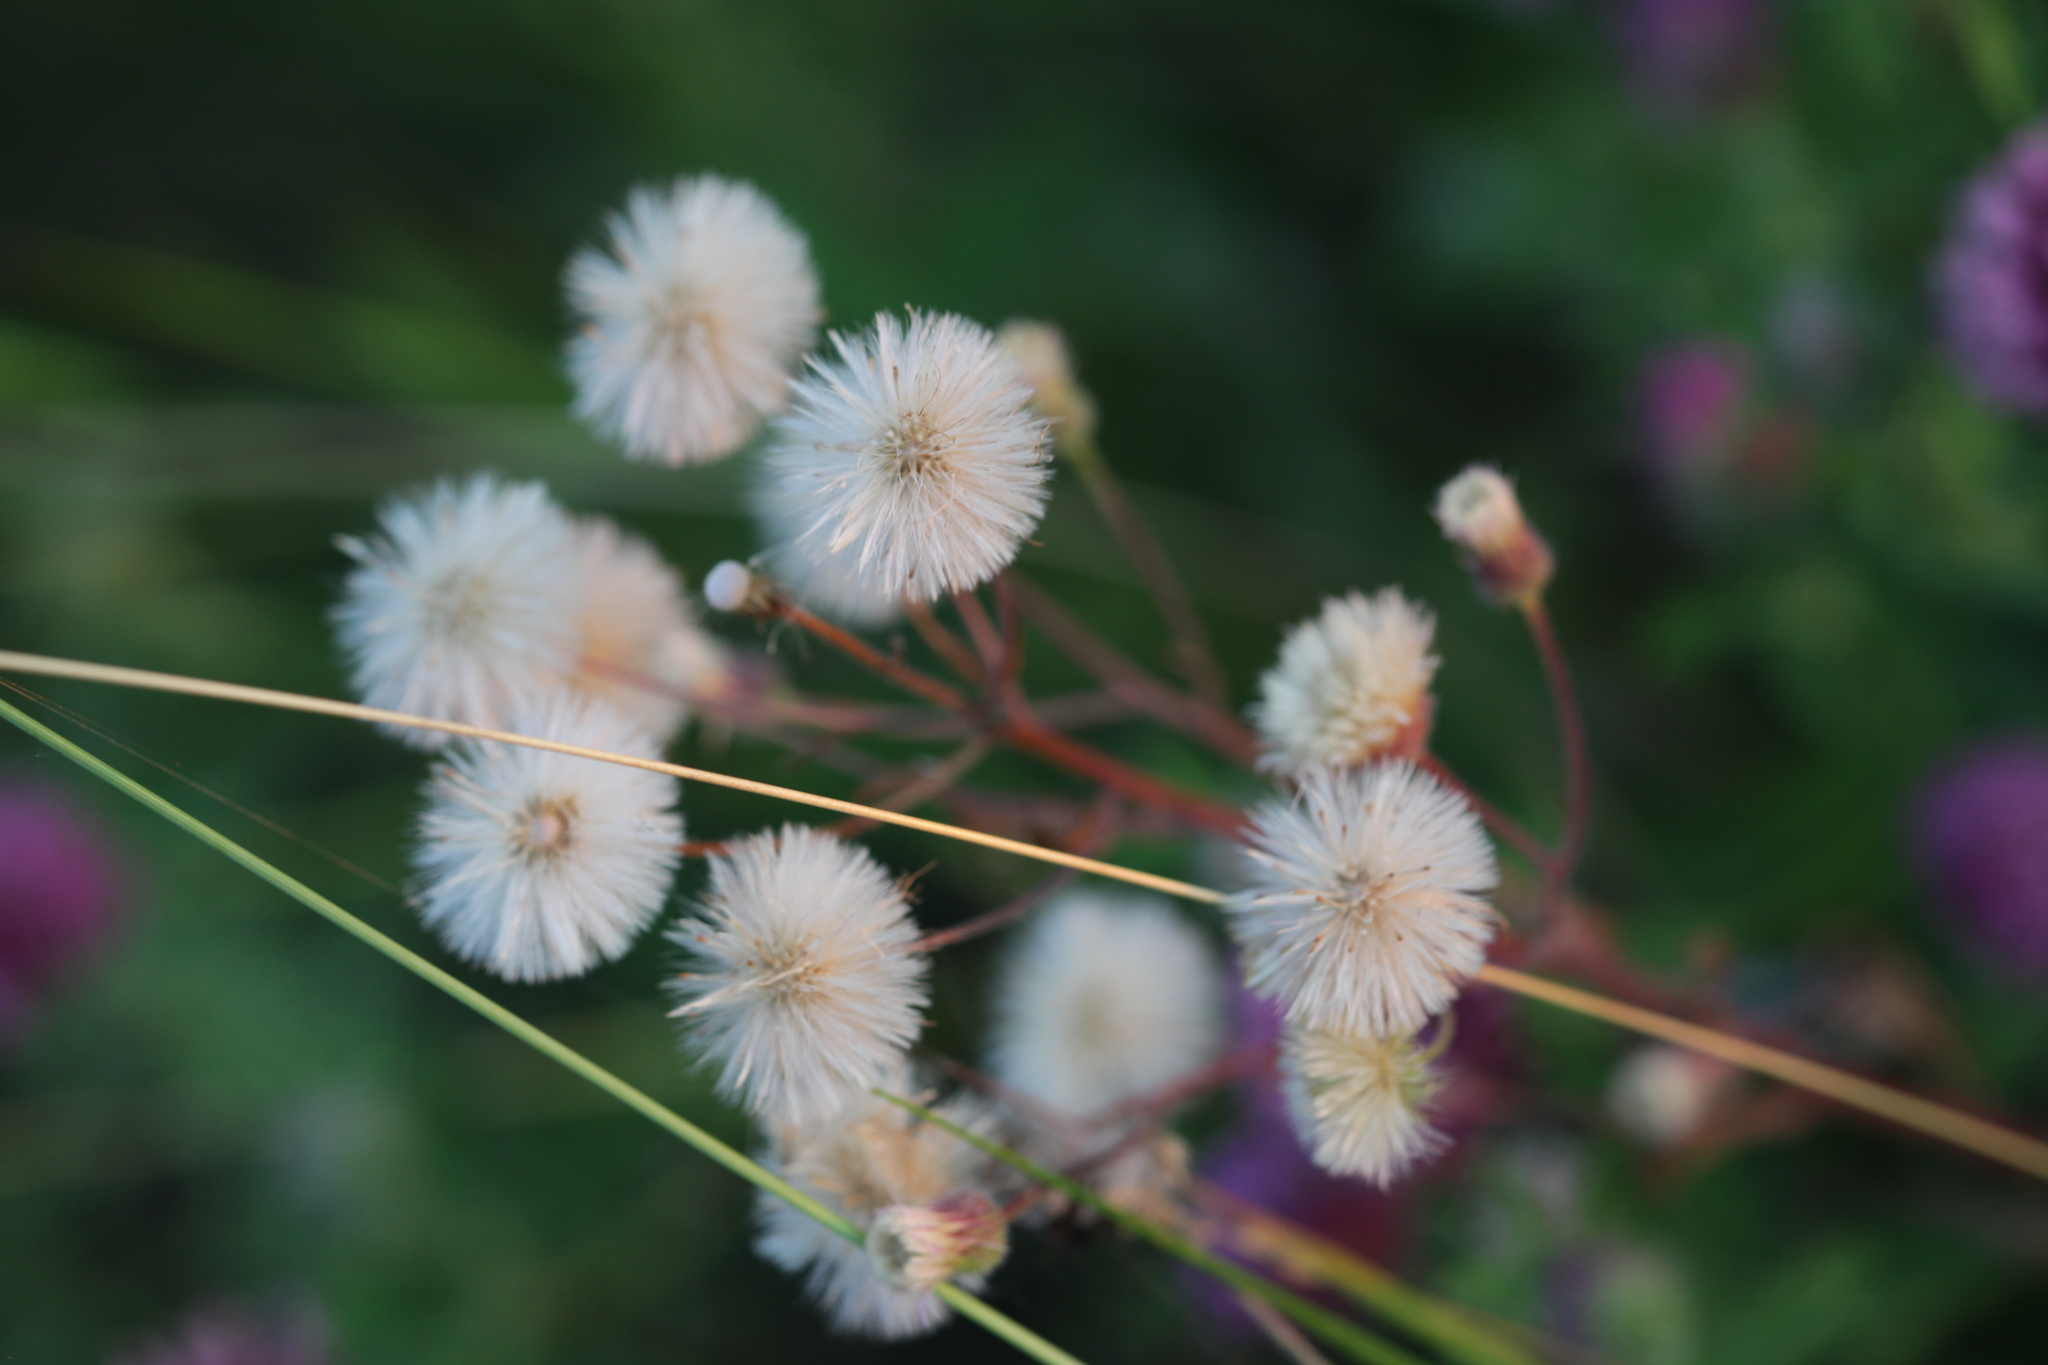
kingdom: Plantae
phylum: Tracheophyta
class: Magnoliopsida
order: Asterales
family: Asteraceae
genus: Erigeron
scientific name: Erigeron acris
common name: Blue fleabane
